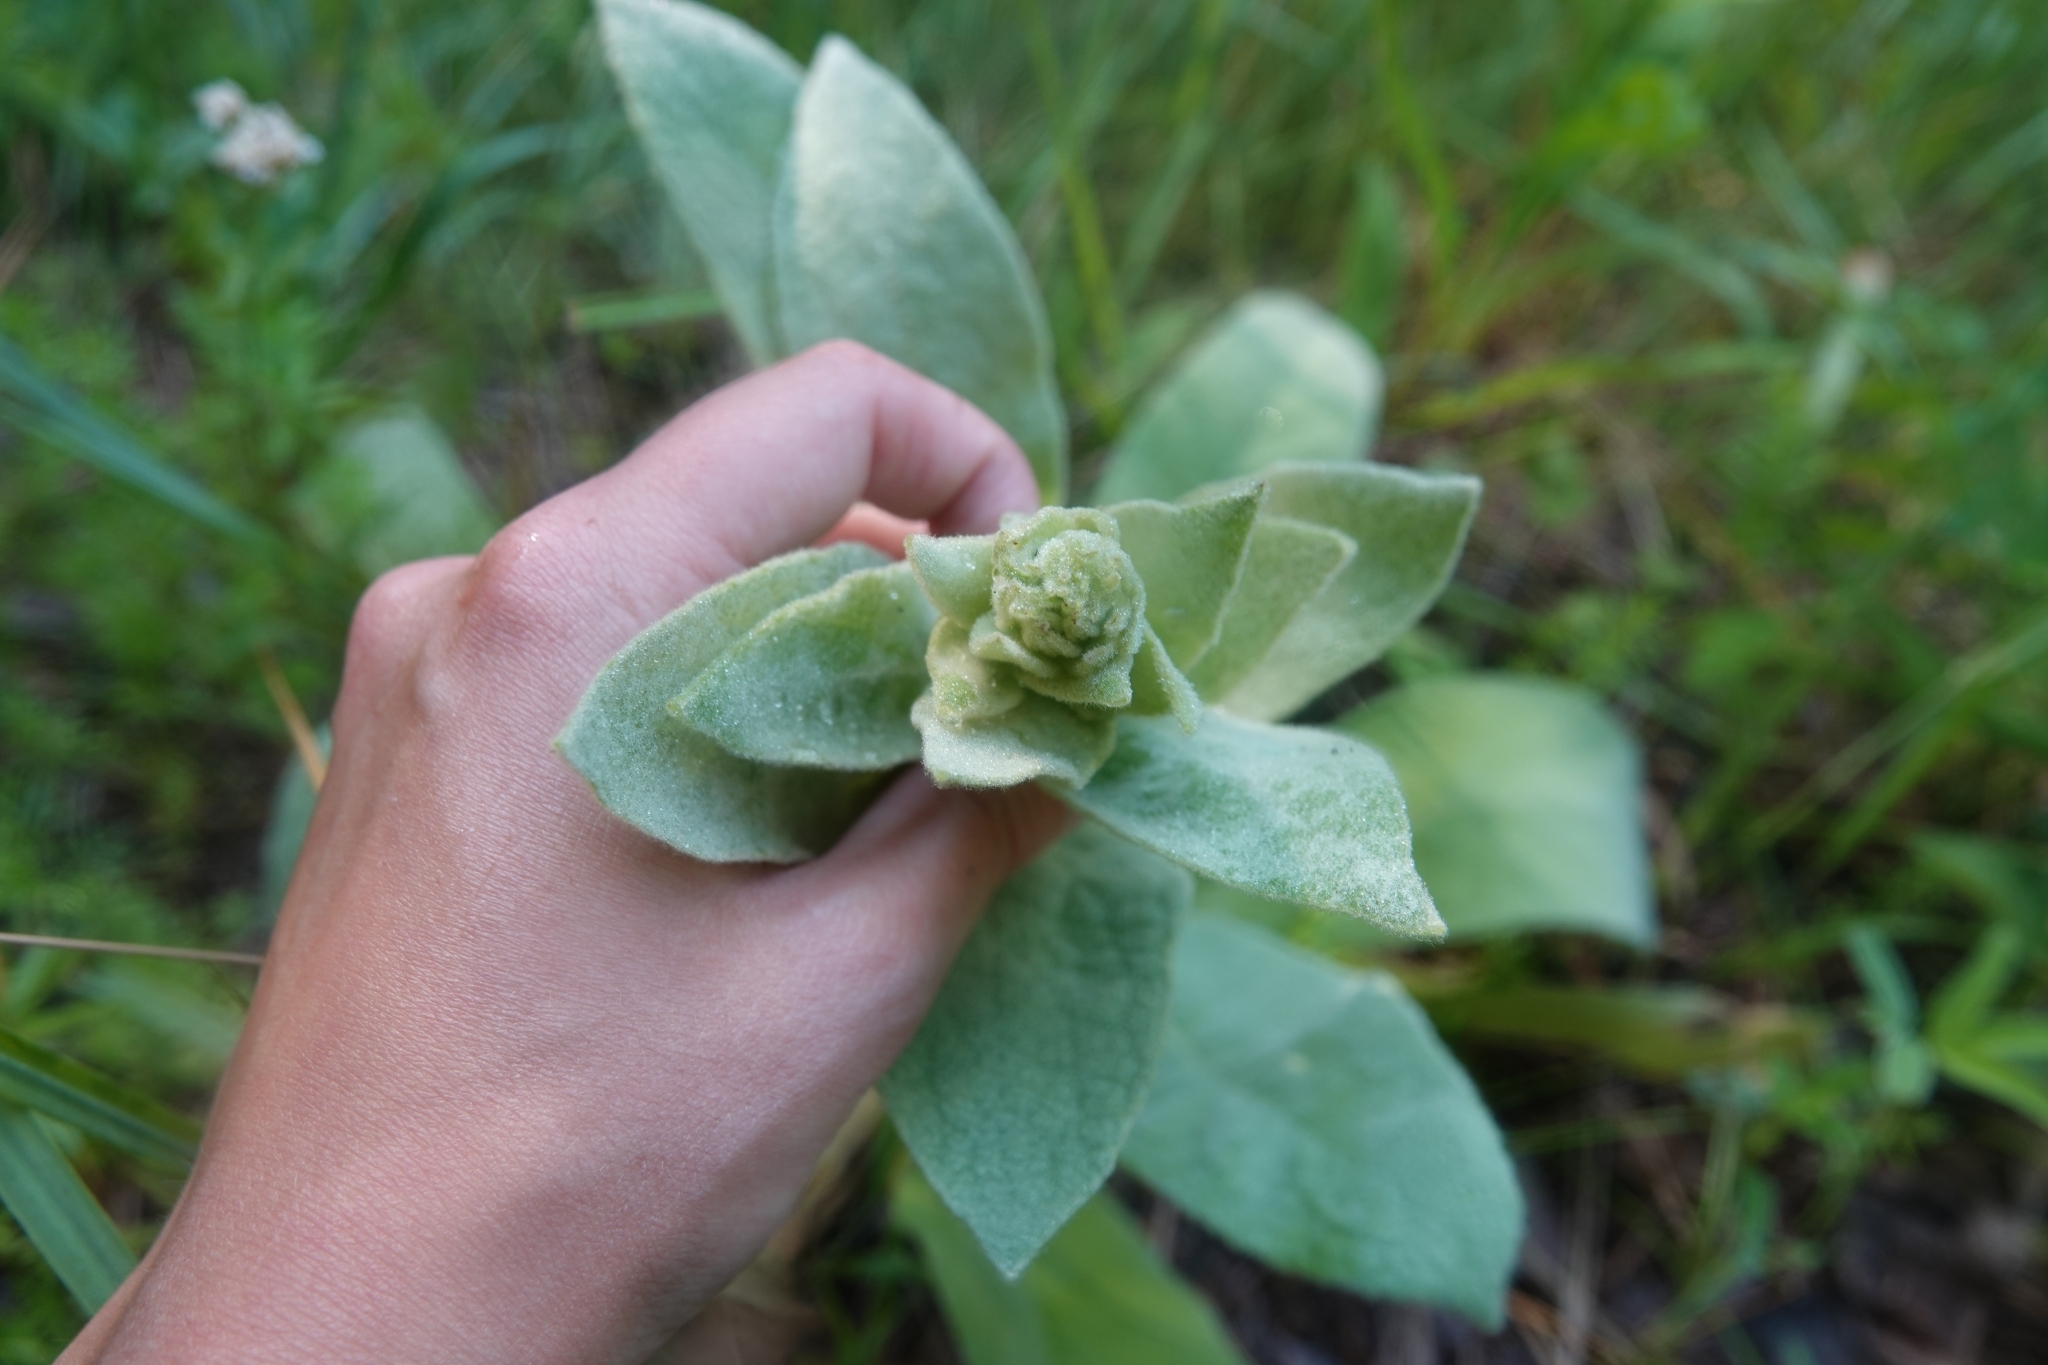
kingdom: Plantae
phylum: Tracheophyta
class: Magnoliopsida
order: Lamiales
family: Scrophulariaceae
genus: Verbascum
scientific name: Verbascum thapsus
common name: Common mullein
